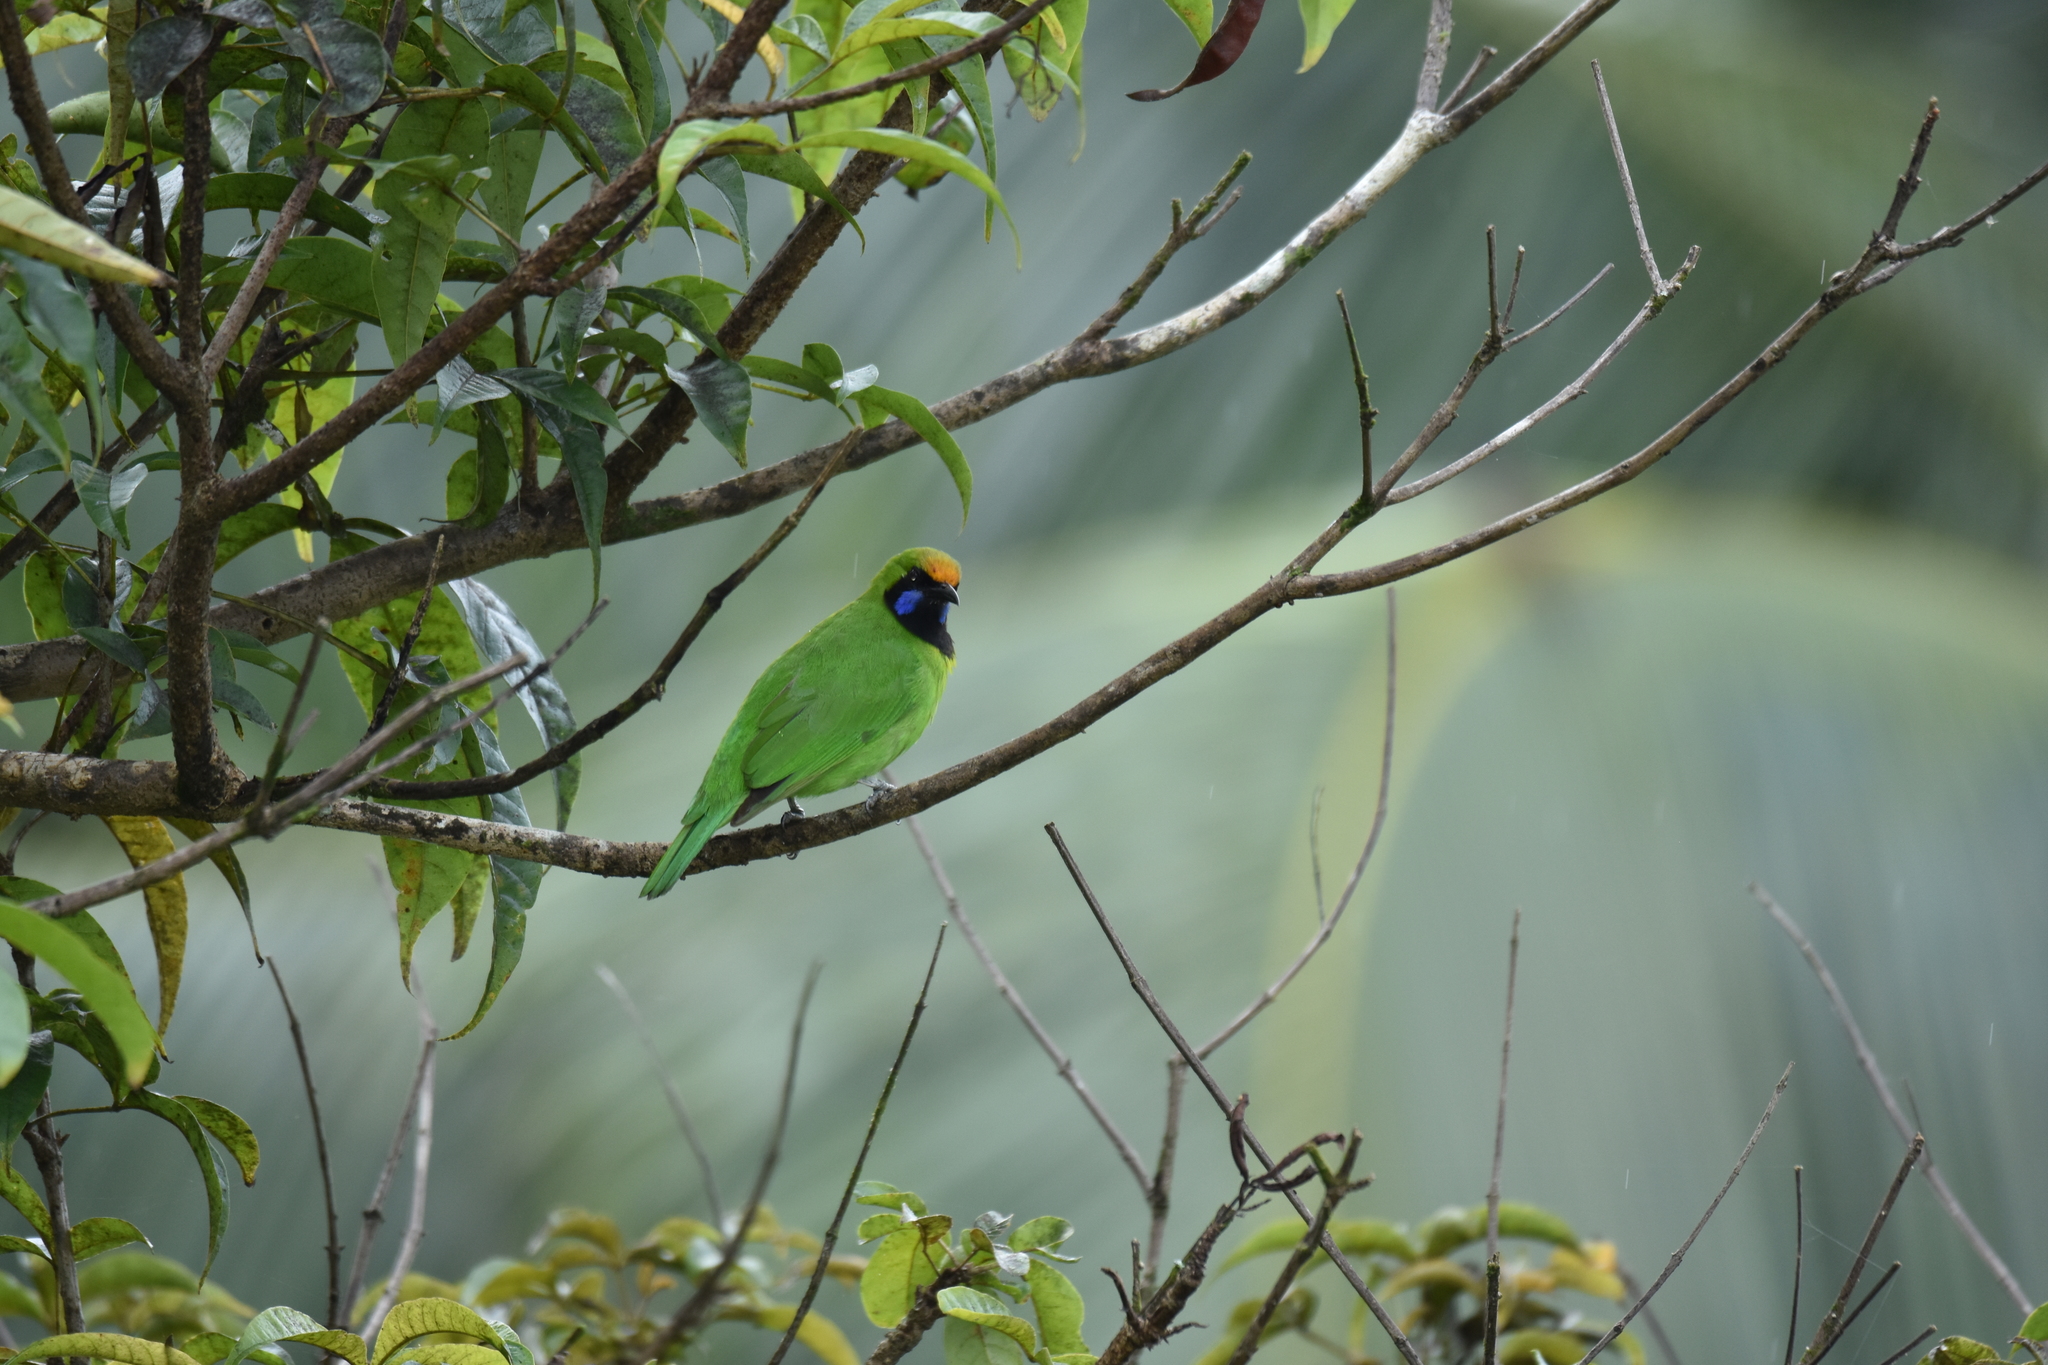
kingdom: Animalia
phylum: Chordata
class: Aves
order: Passeriformes
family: Chloropseidae
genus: Chloropsis
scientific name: Chloropsis aurifrons
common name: Golden-fronted leafbird
